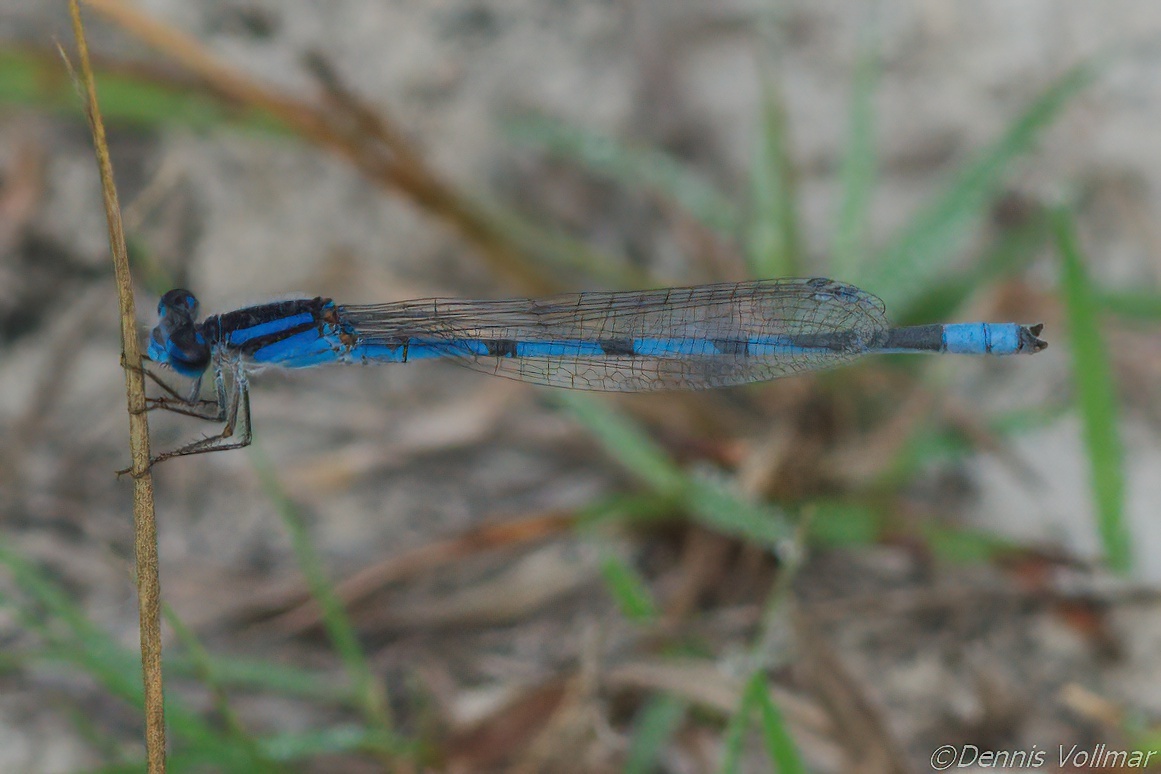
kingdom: Animalia
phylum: Arthropoda
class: Insecta
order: Odonata
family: Coenagrionidae
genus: Enallagma
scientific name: Enallagma civile
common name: Damselfly
